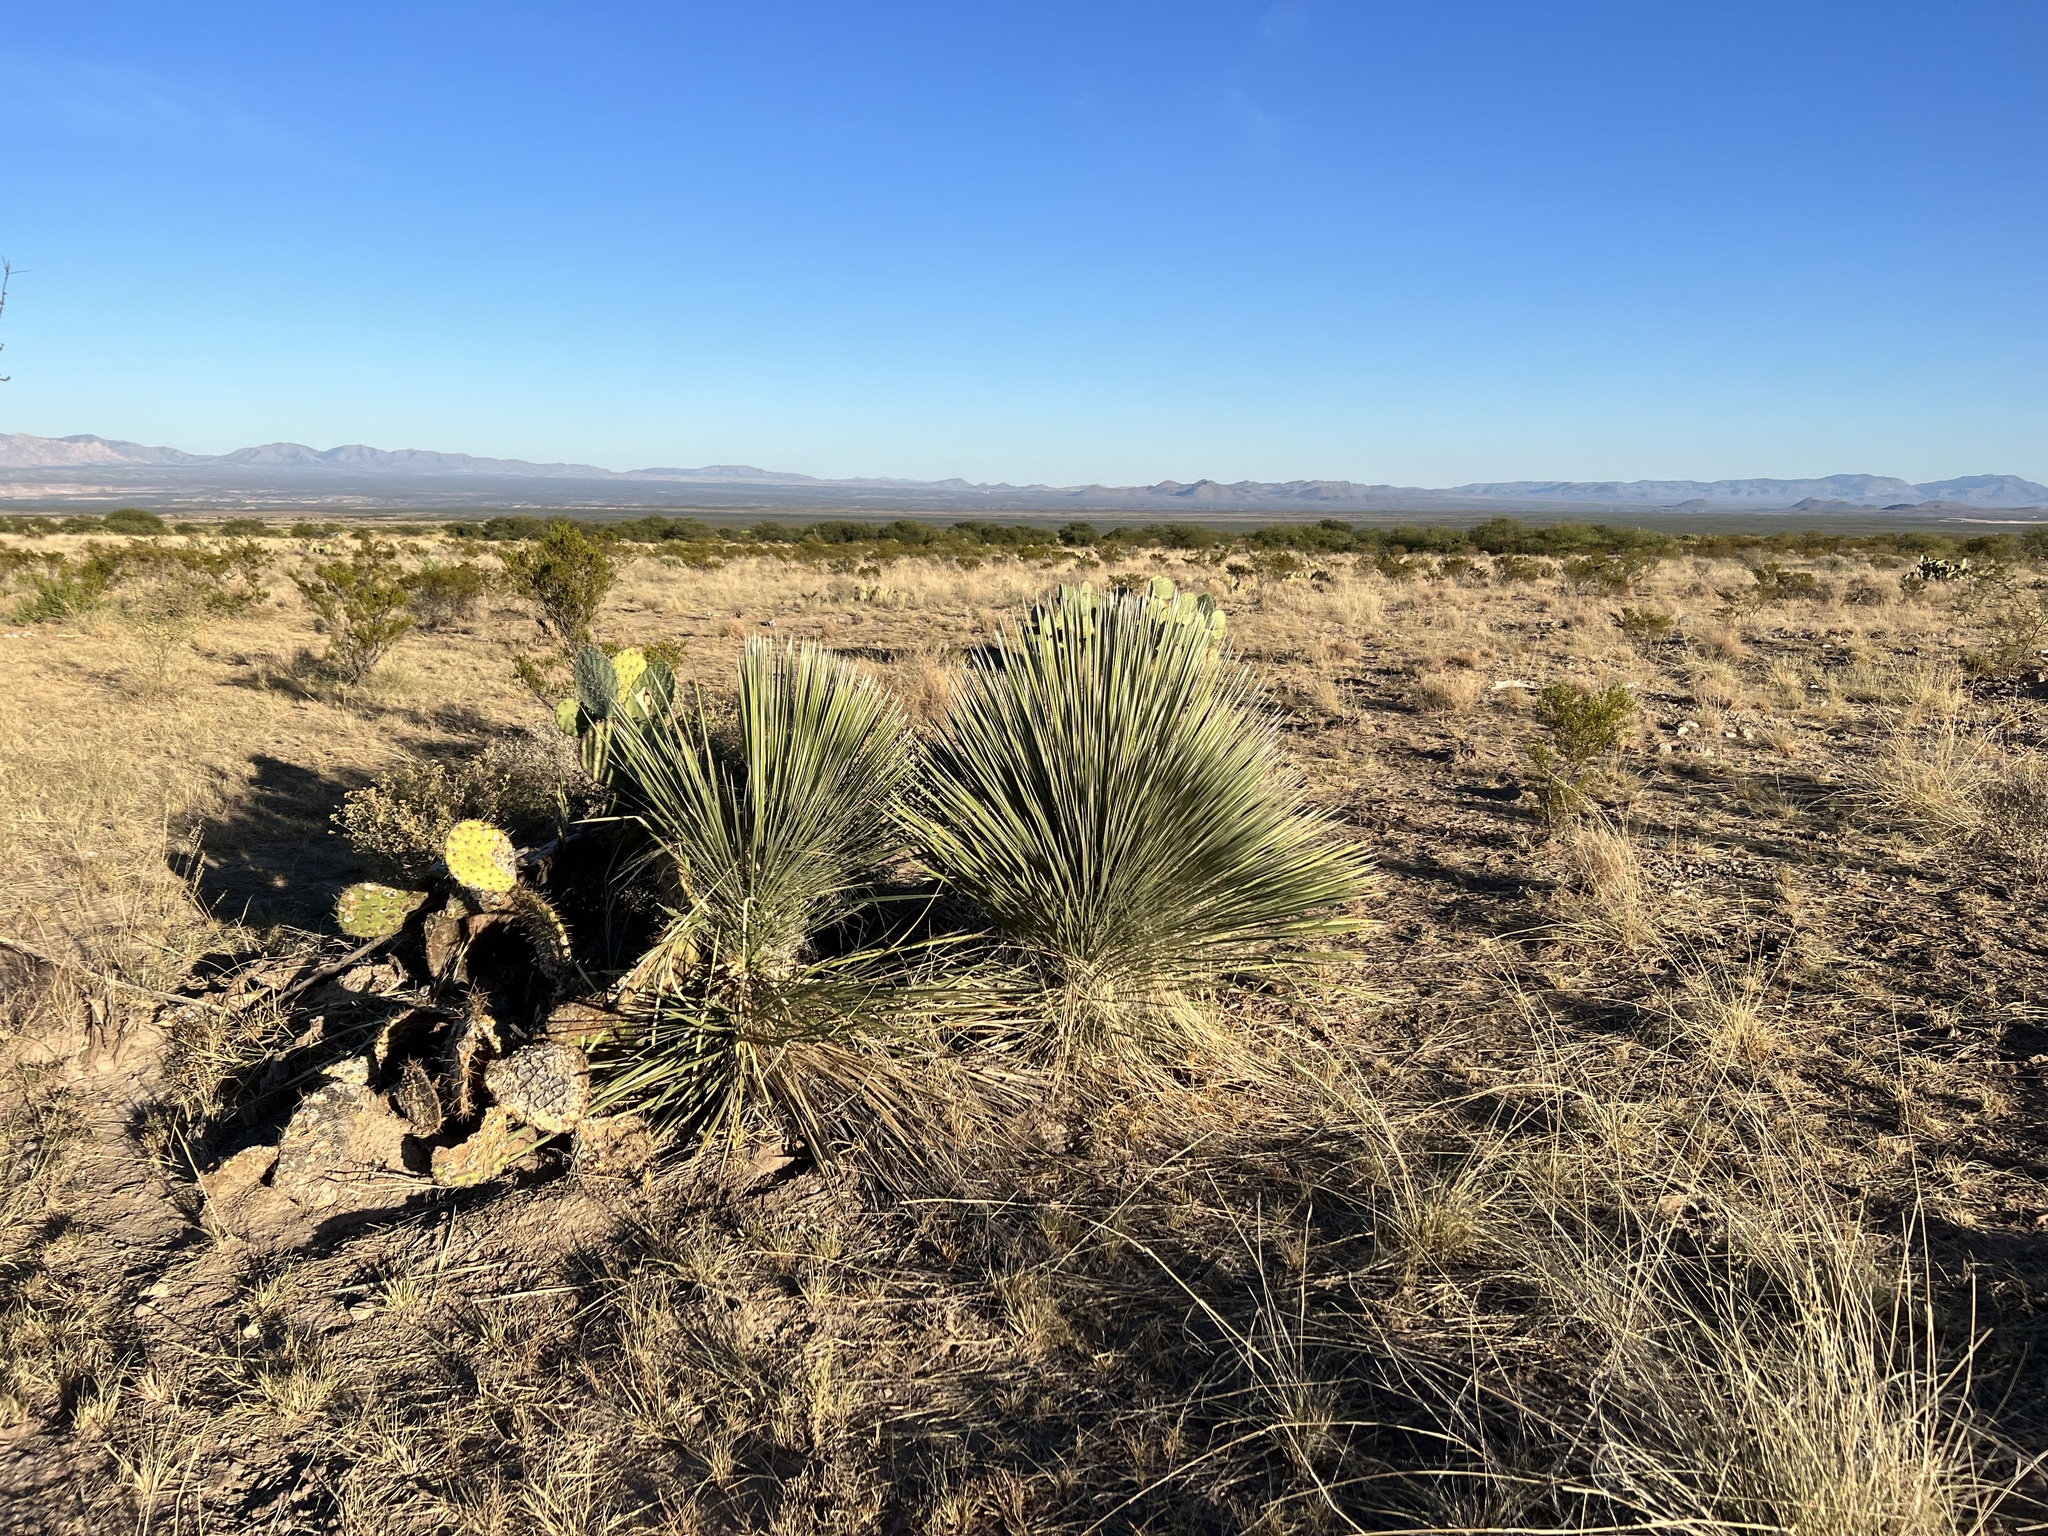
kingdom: Plantae
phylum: Tracheophyta
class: Liliopsida
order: Asparagales
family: Asparagaceae
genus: Yucca
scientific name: Yucca elata
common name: Palmella
